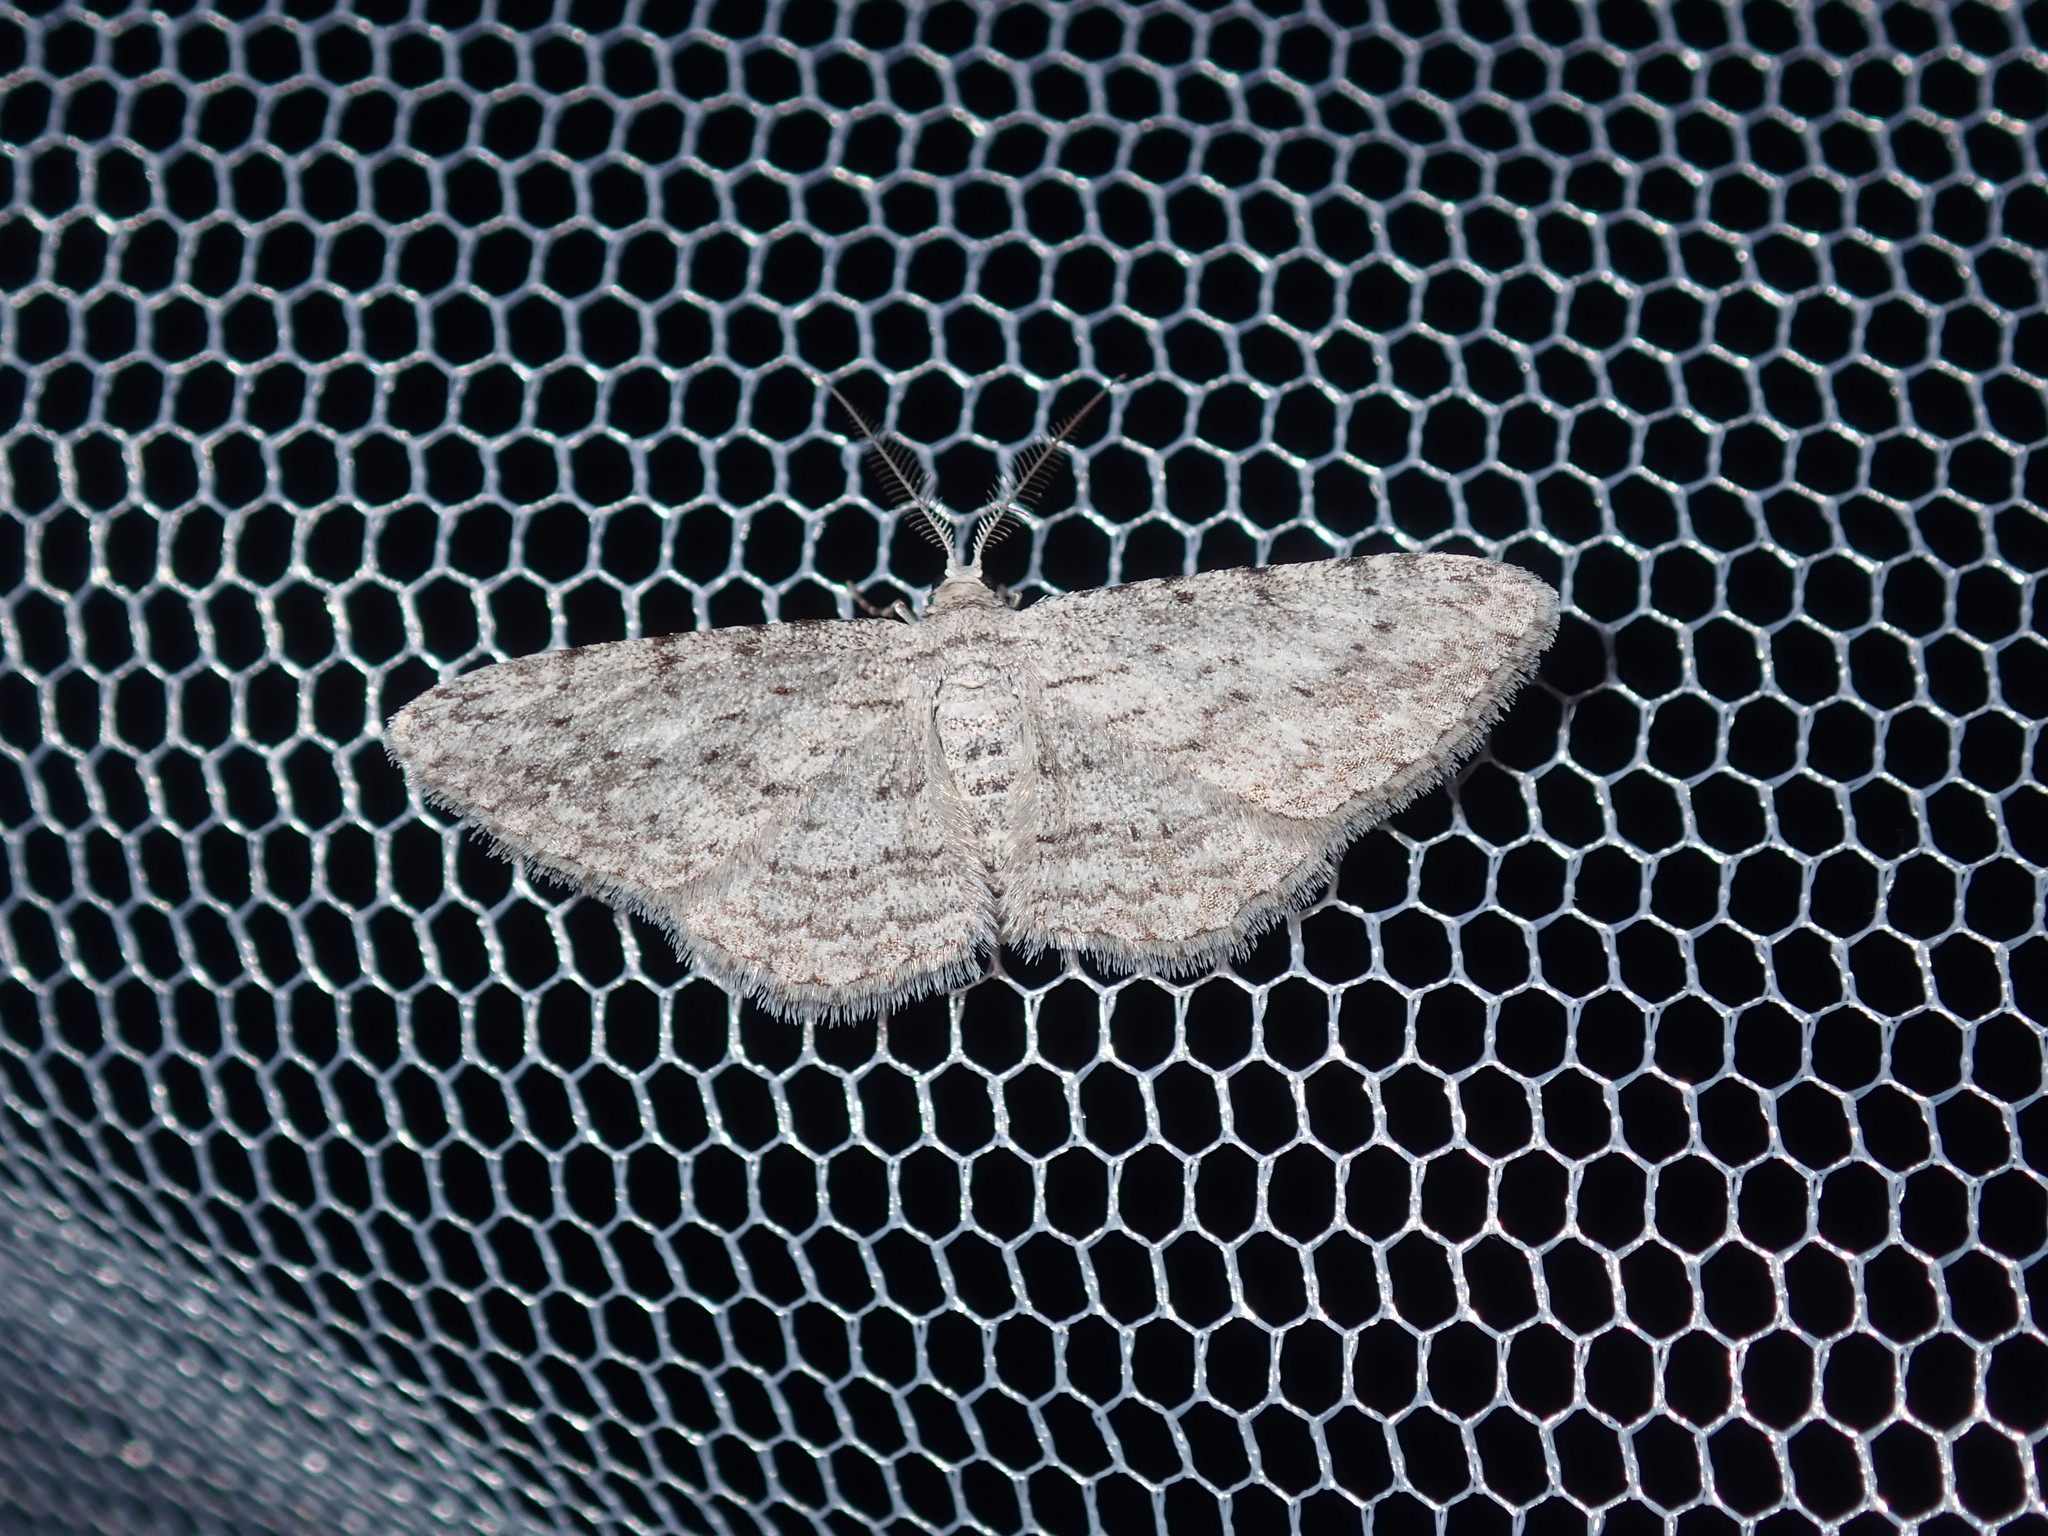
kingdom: Animalia
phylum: Arthropoda
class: Insecta
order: Lepidoptera
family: Geometridae
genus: Phelotis
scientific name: Phelotis cognata
